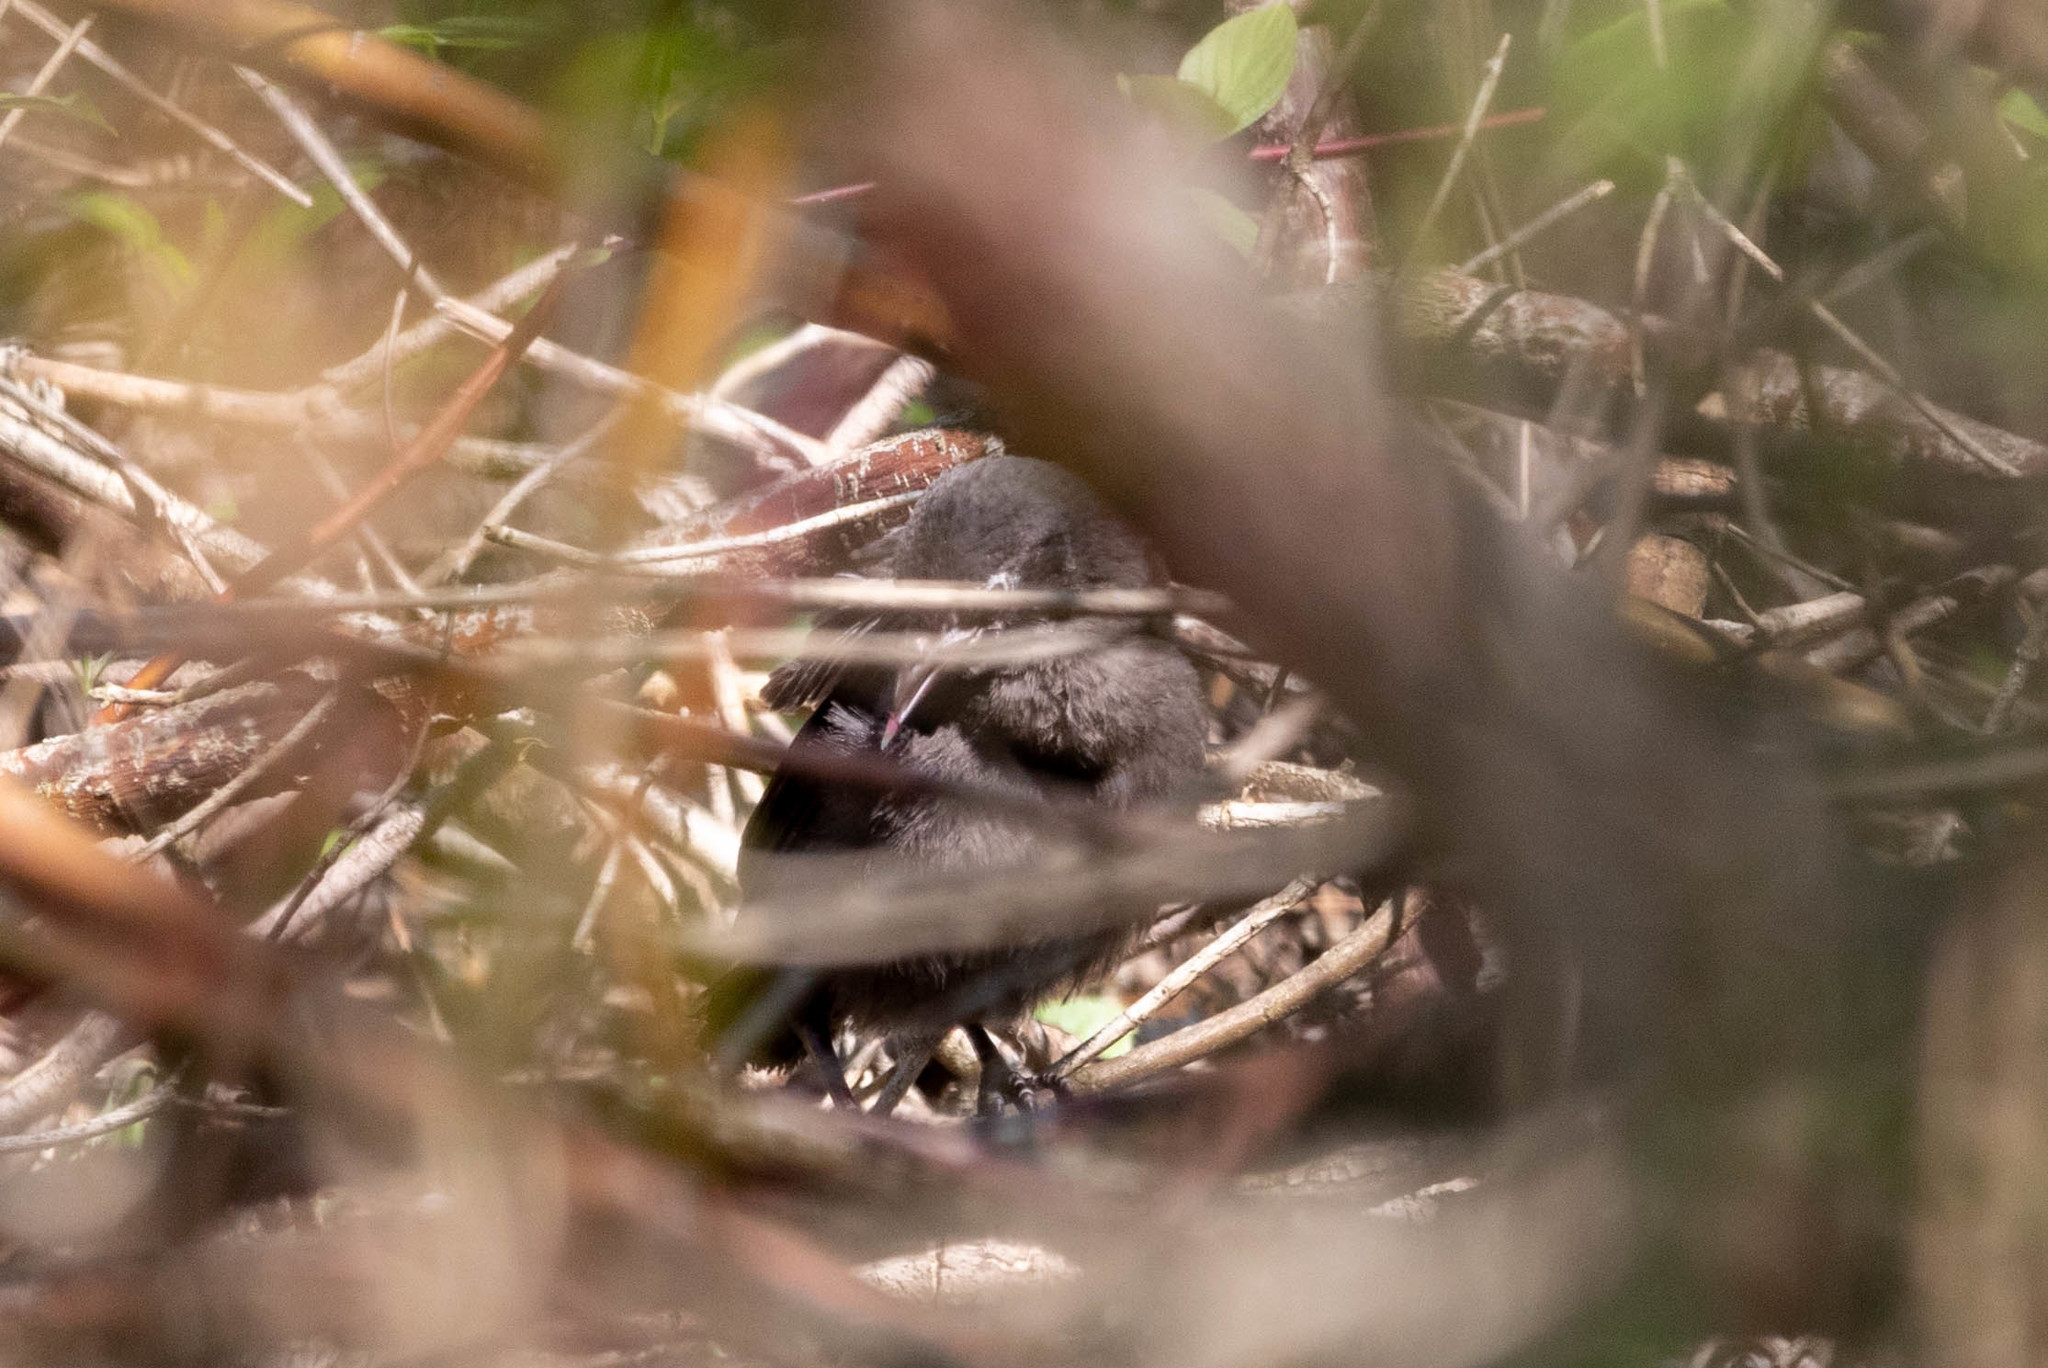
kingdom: Animalia
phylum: Chordata
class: Aves
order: Passeriformes
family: Icteridae
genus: Quiscalus
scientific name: Quiscalus quiscula
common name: Common grackle
